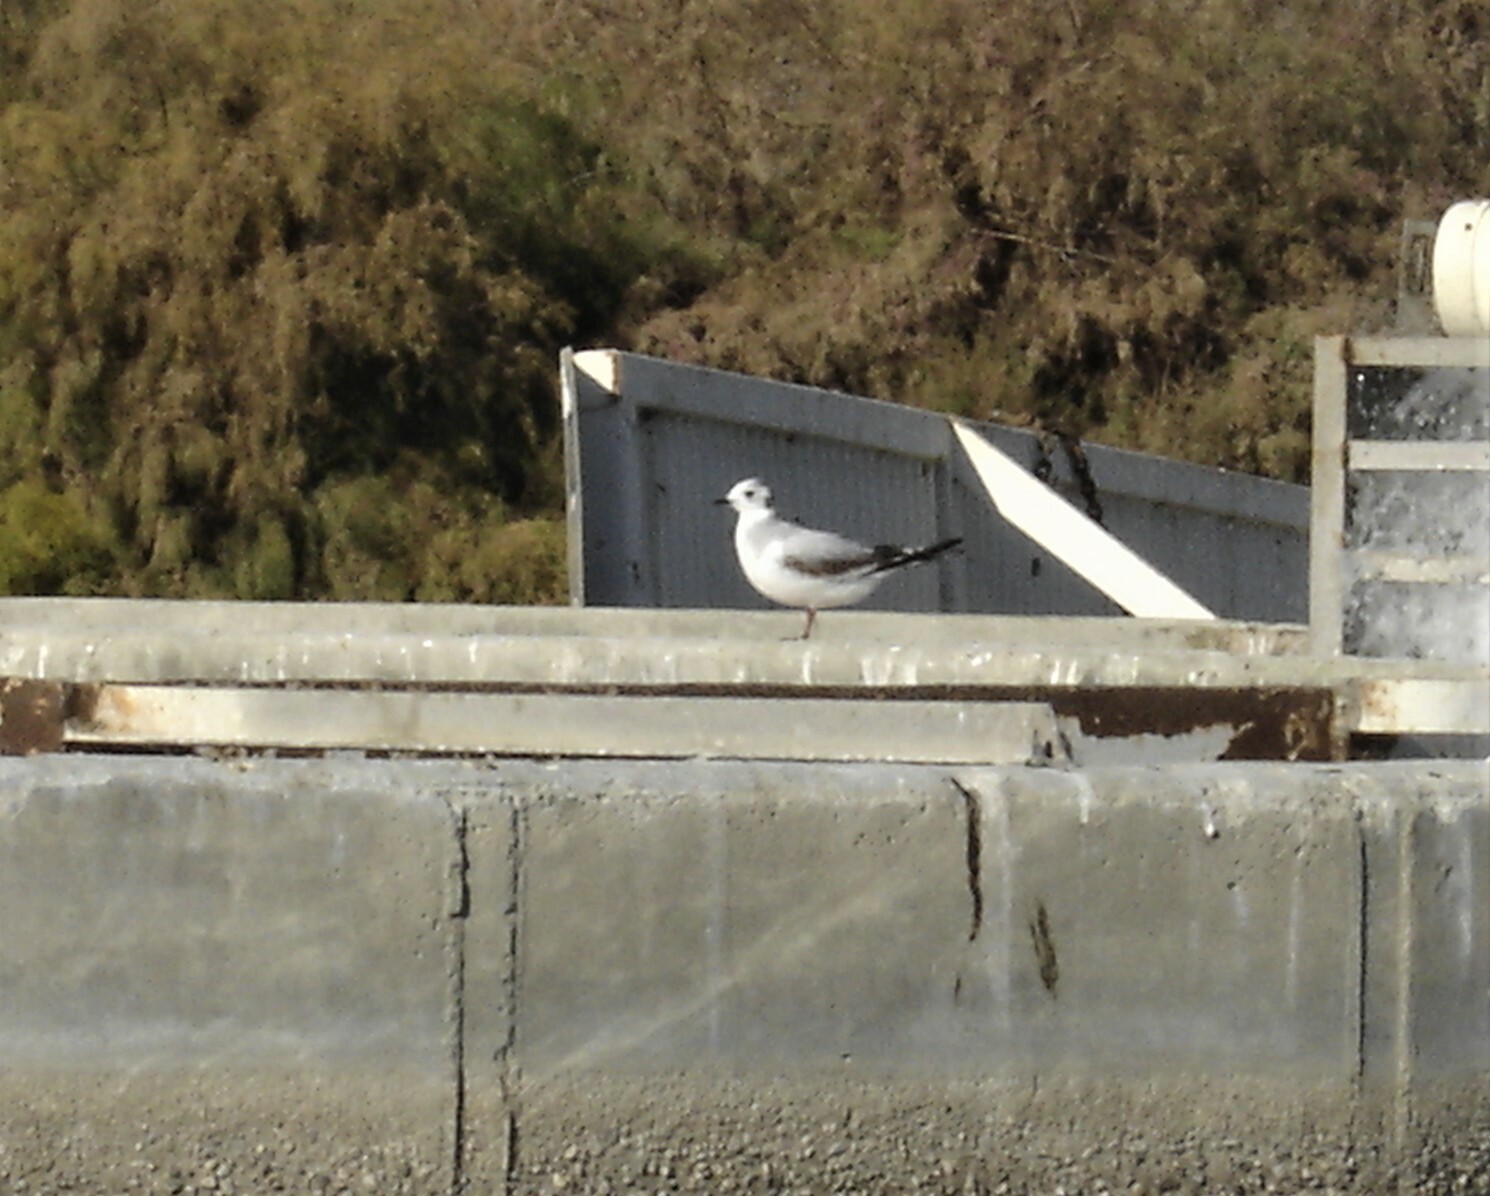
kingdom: Animalia
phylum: Chordata
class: Aves
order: Charadriiformes
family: Laridae
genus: Hydrocoloeus
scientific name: Hydrocoloeus minutus
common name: Little gull
